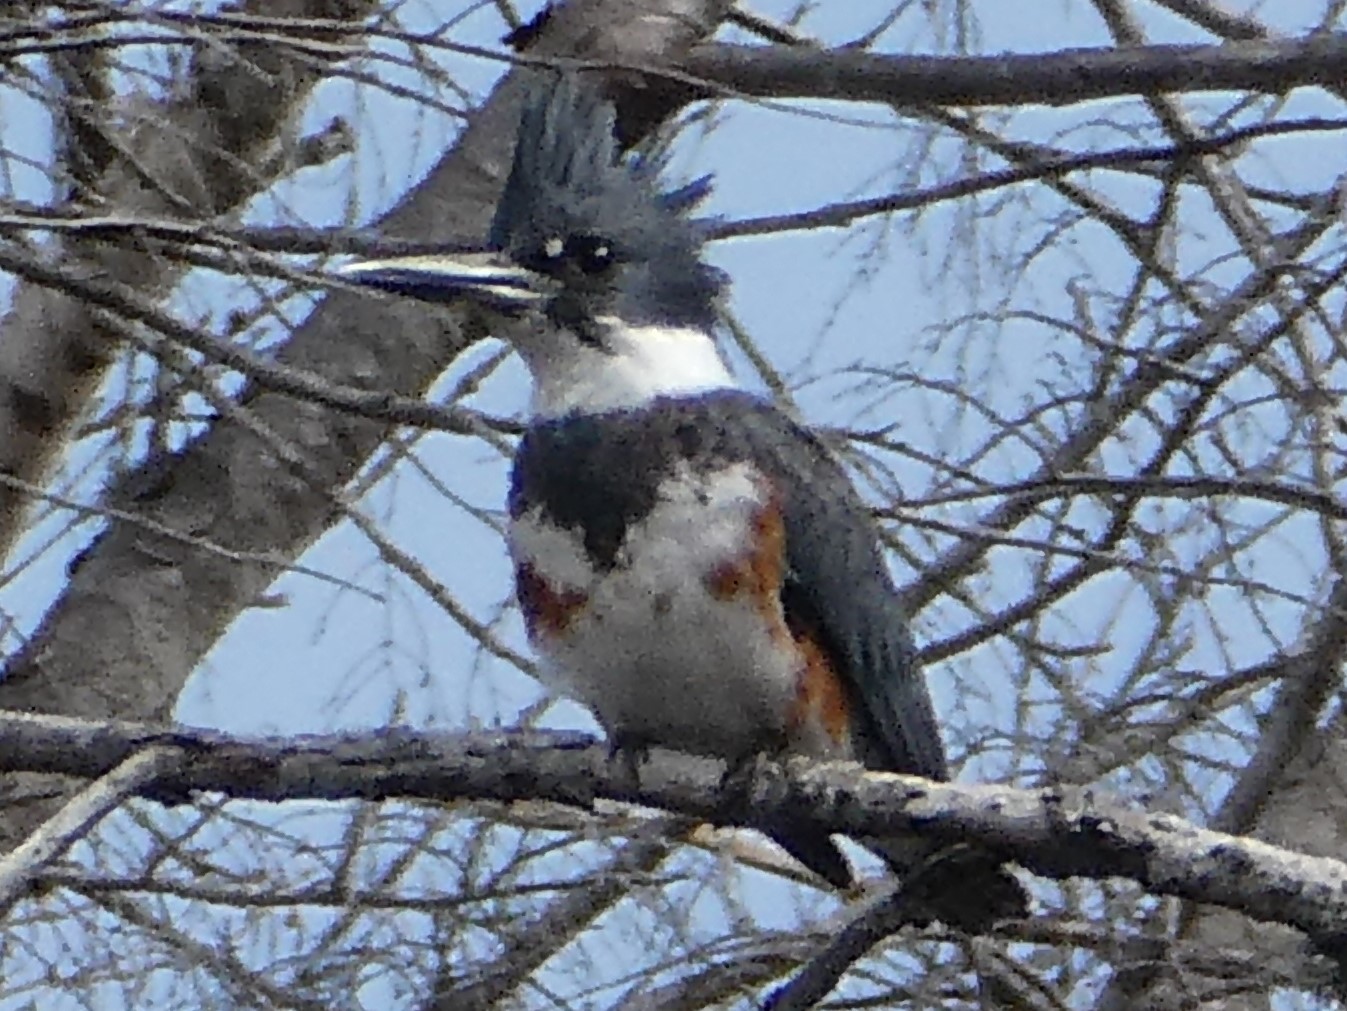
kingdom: Animalia
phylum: Chordata
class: Aves
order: Coraciiformes
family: Alcedinidae
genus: Megaceryle
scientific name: Megaceryle alcyon
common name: Belted kingfisher
